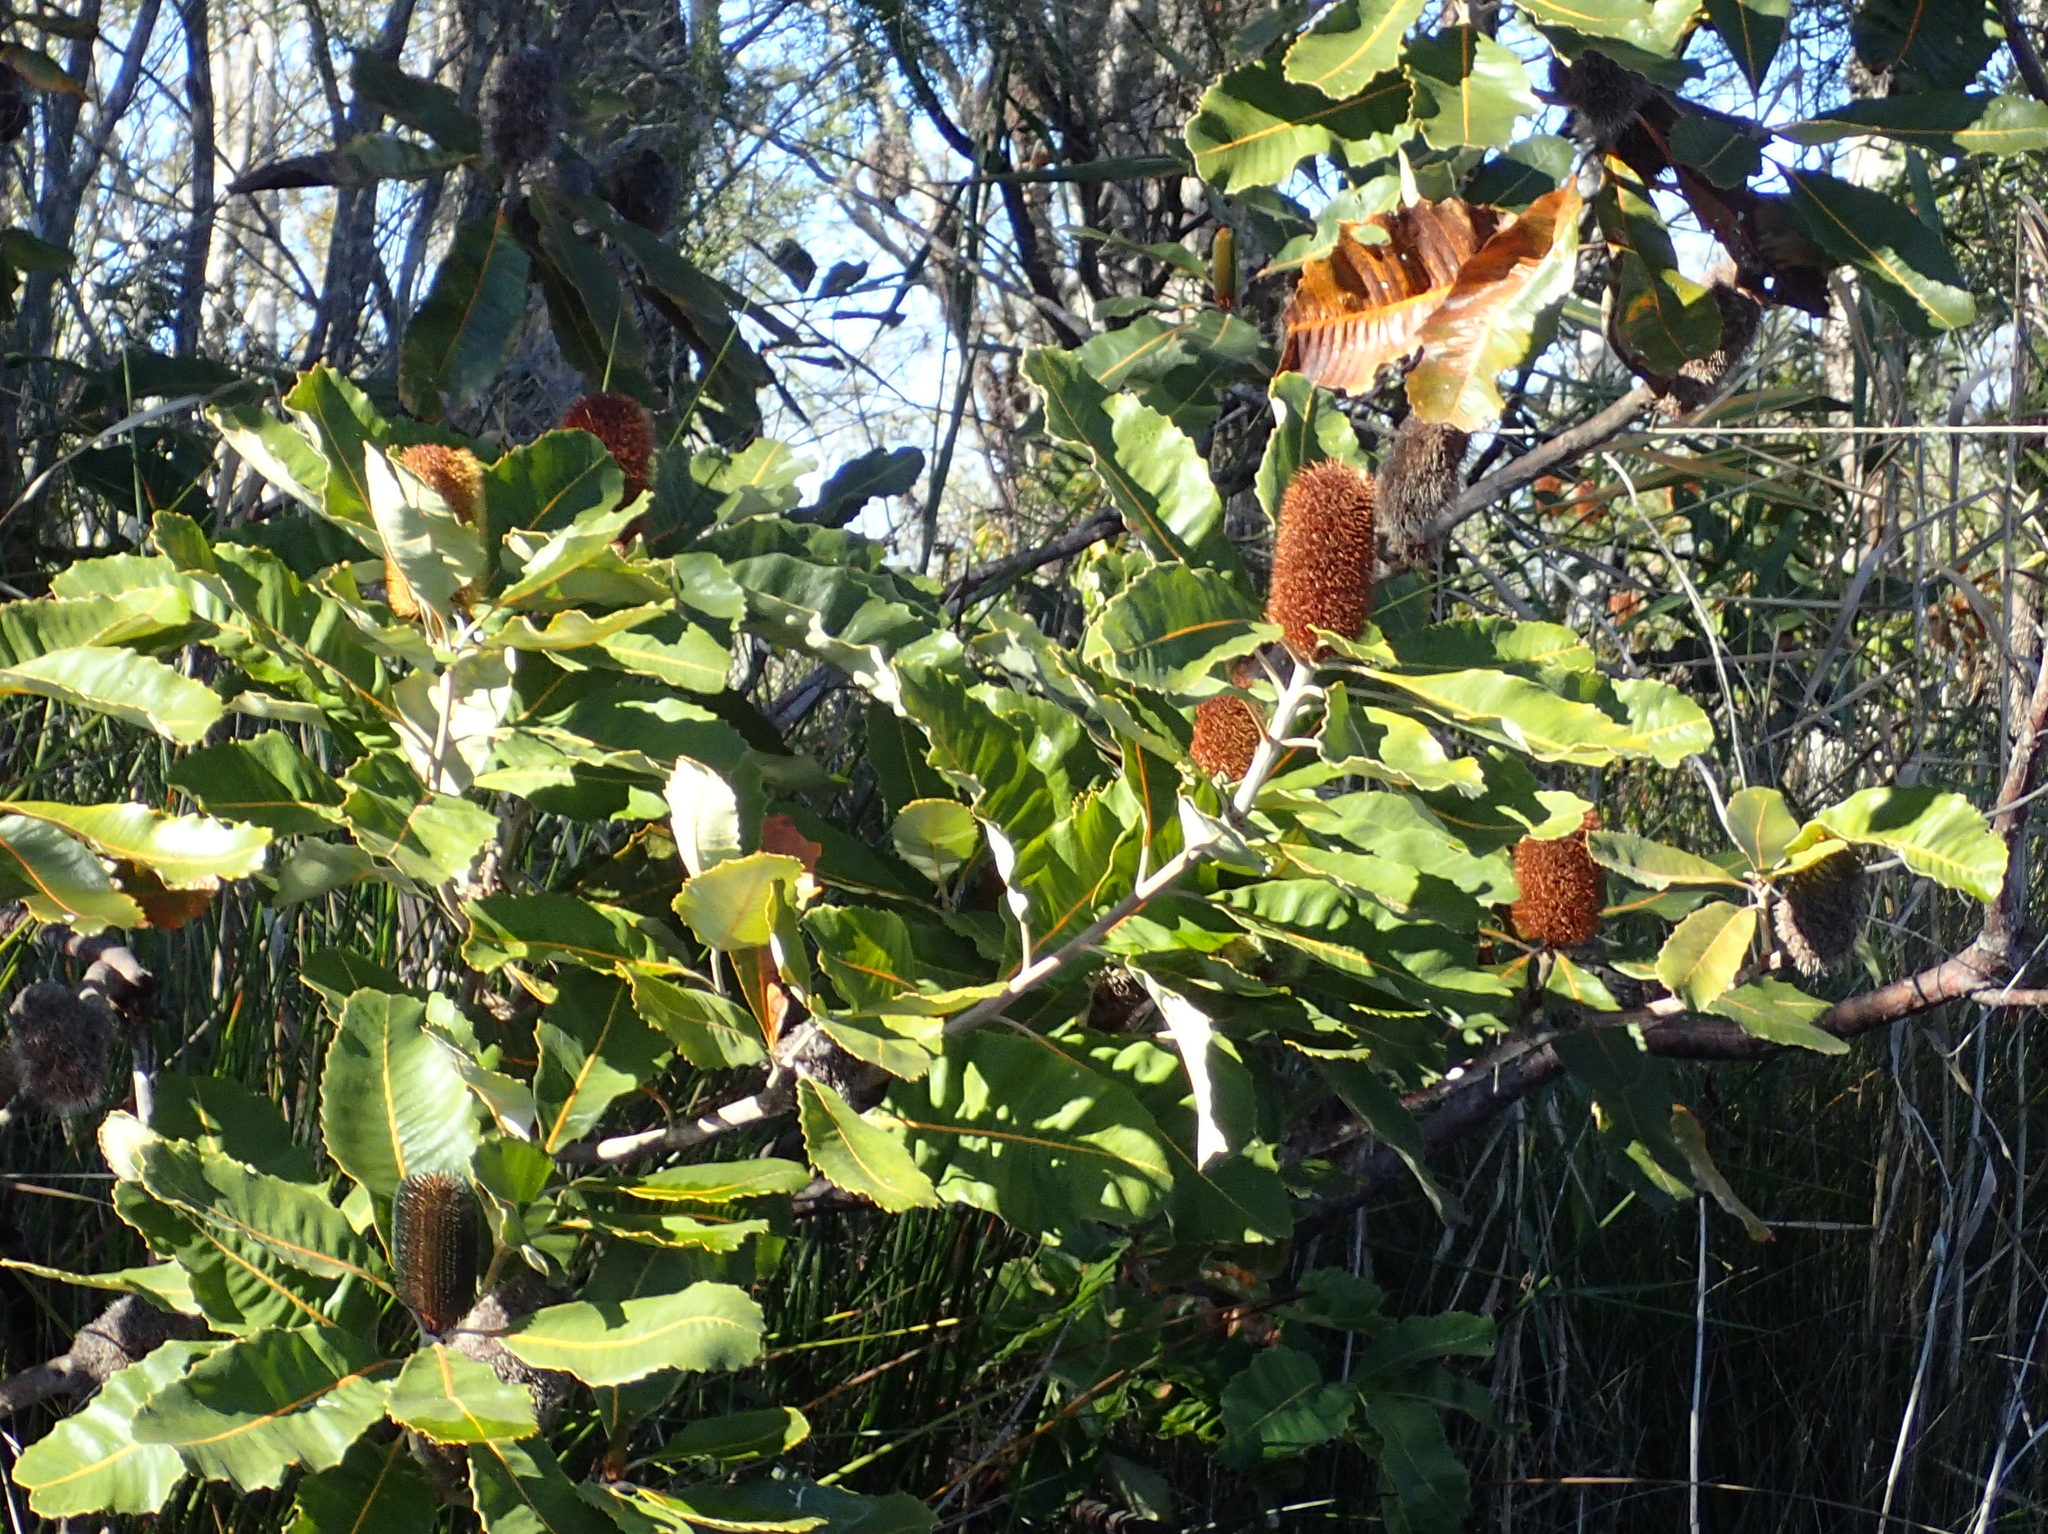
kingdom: Plantae
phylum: Tracheophyta
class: Magnoliopsida
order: Proteales
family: Proteaceae
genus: Banksia
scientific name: Banksia robur
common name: Broadleaf banksia
